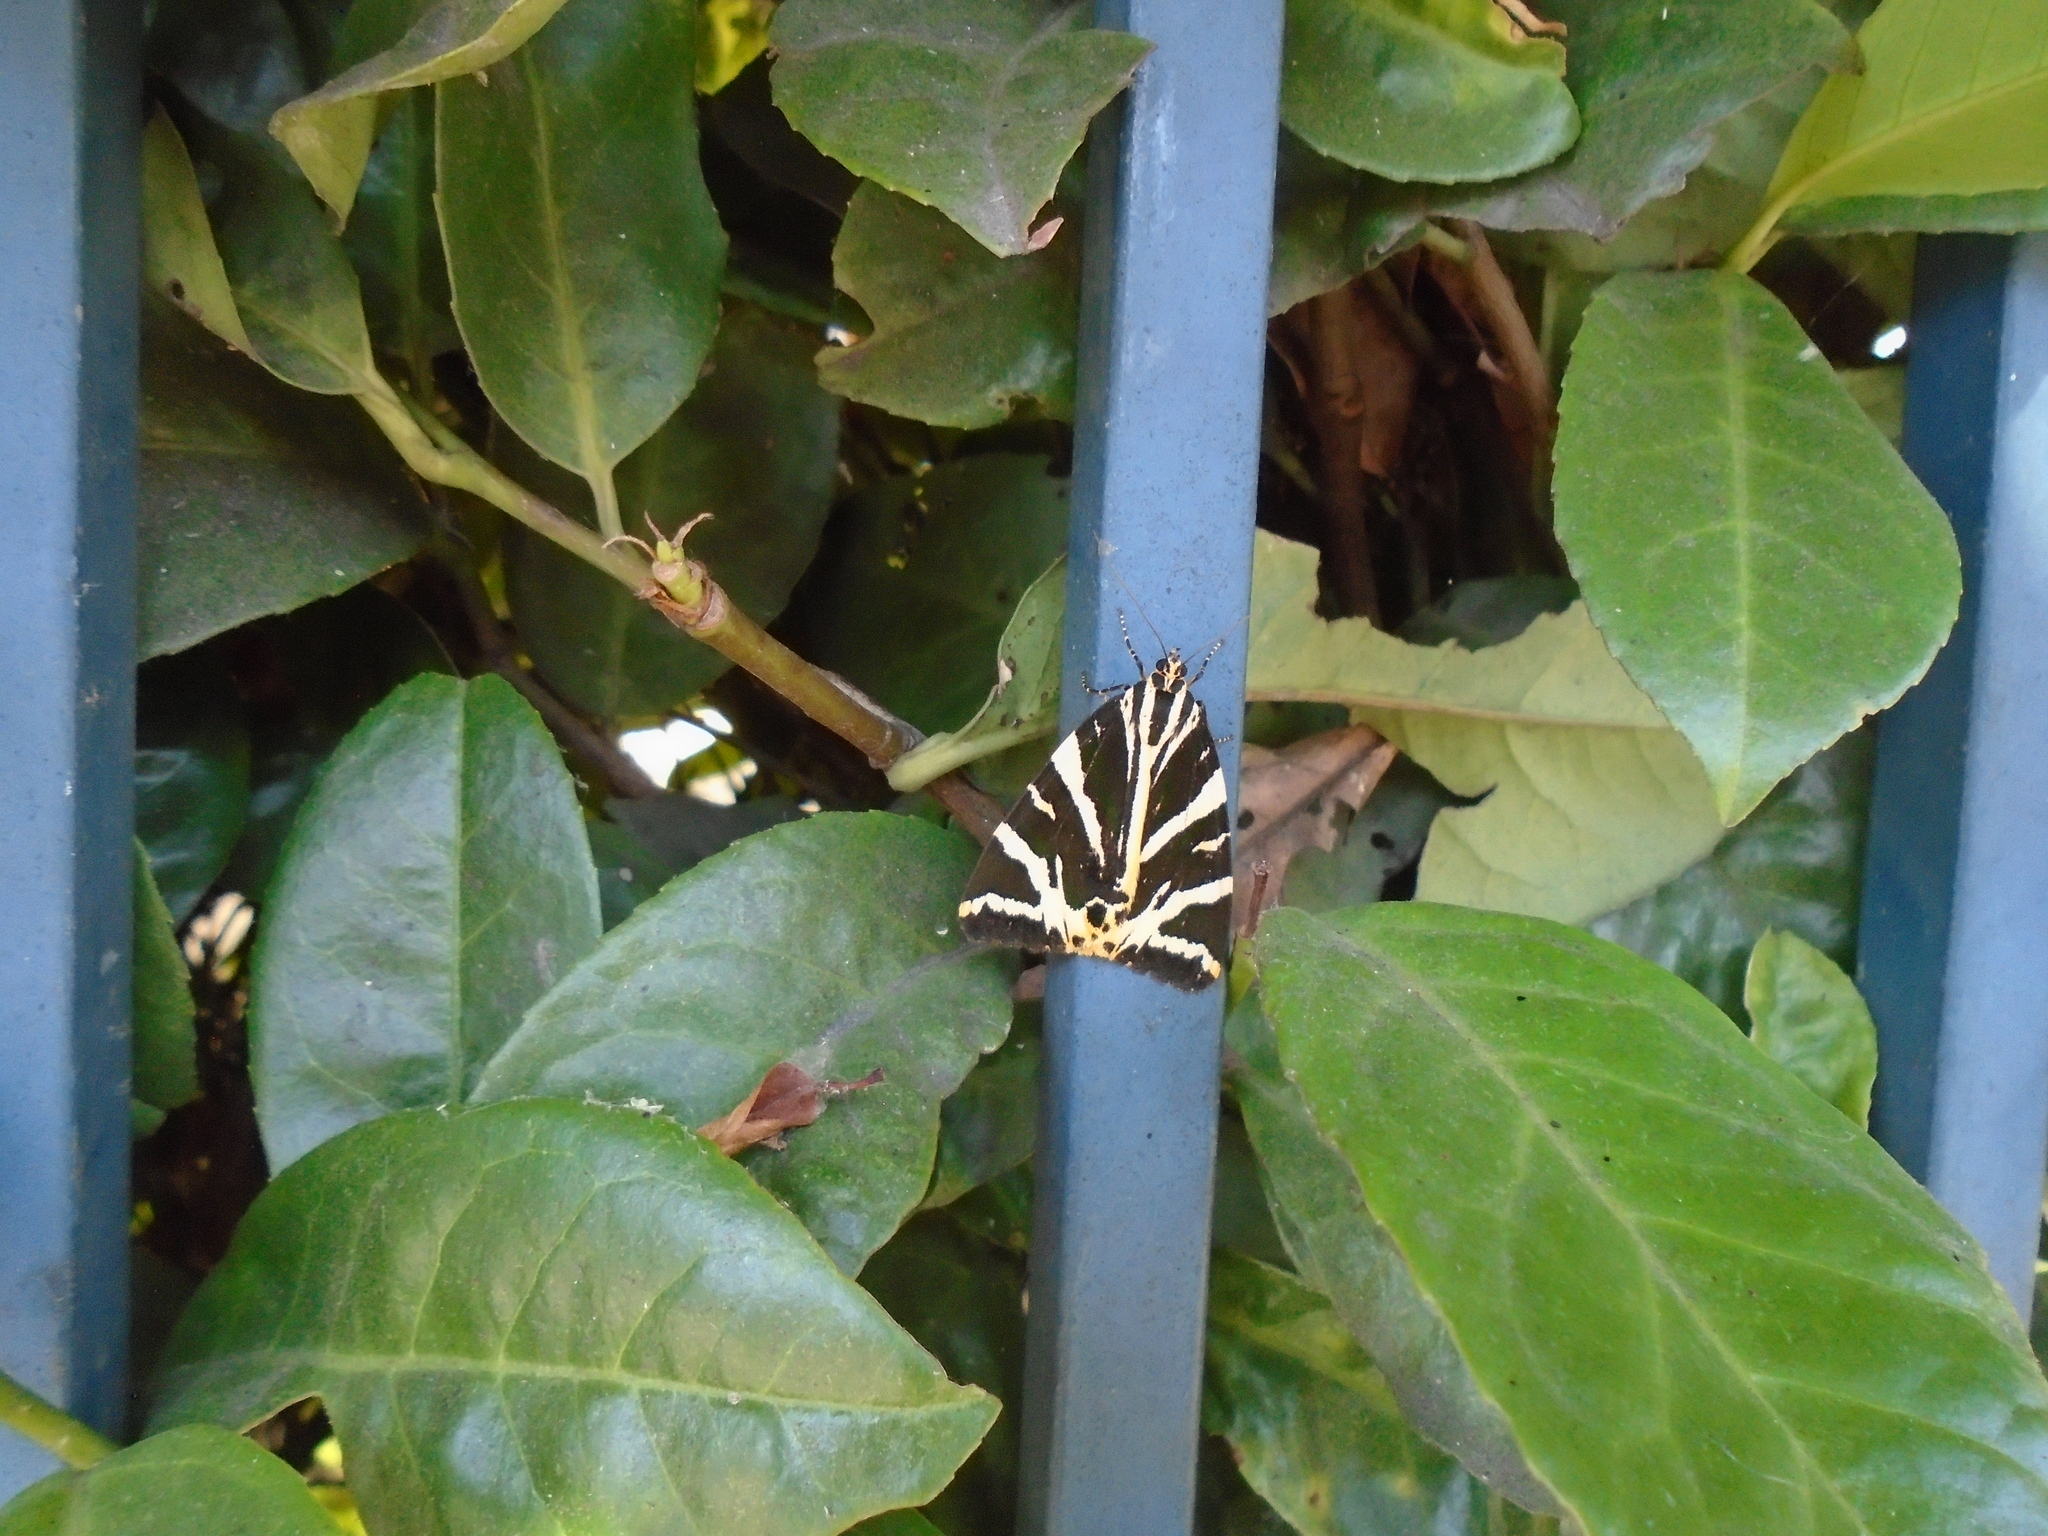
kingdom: Animalia
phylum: Arthropoda
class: Insecta
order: Lepidoptera
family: Erebidae
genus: Euplagia
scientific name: Euplagia quadripunctaria
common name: Jersey tiger
